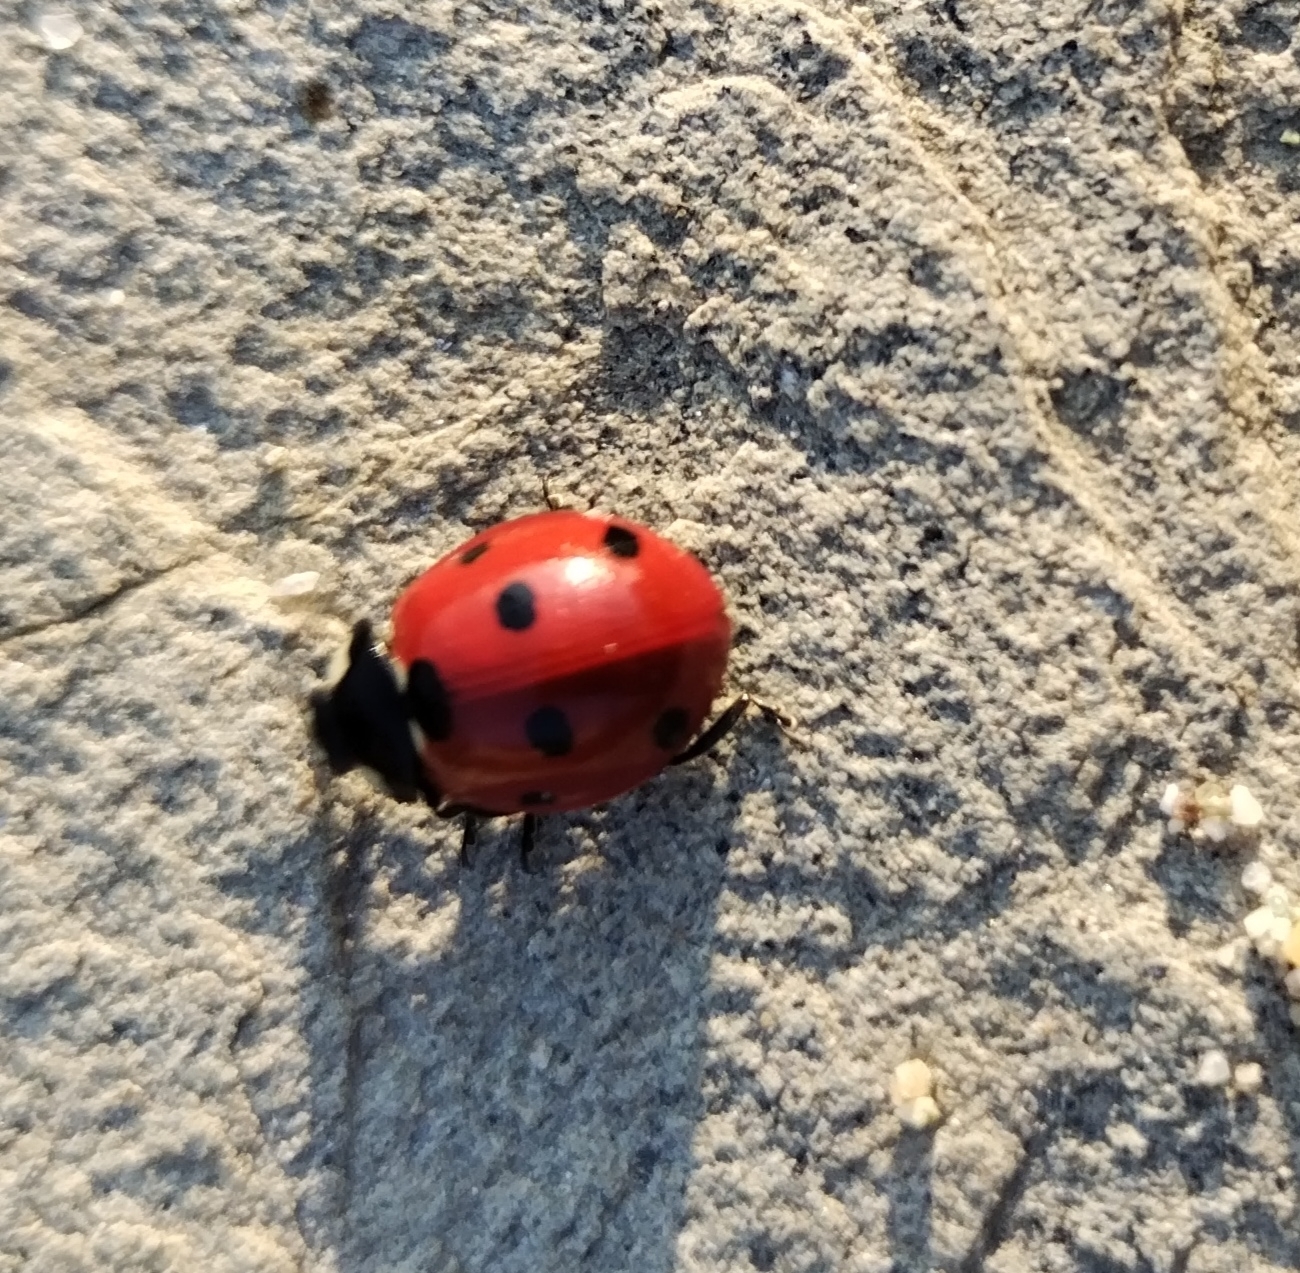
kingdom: Animalia
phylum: Arthropoda
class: Insecta
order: Coleoptera
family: Coccinellidae
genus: Coccinella
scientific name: Coccinella septempunctata
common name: Sevenspotted lady beetle
